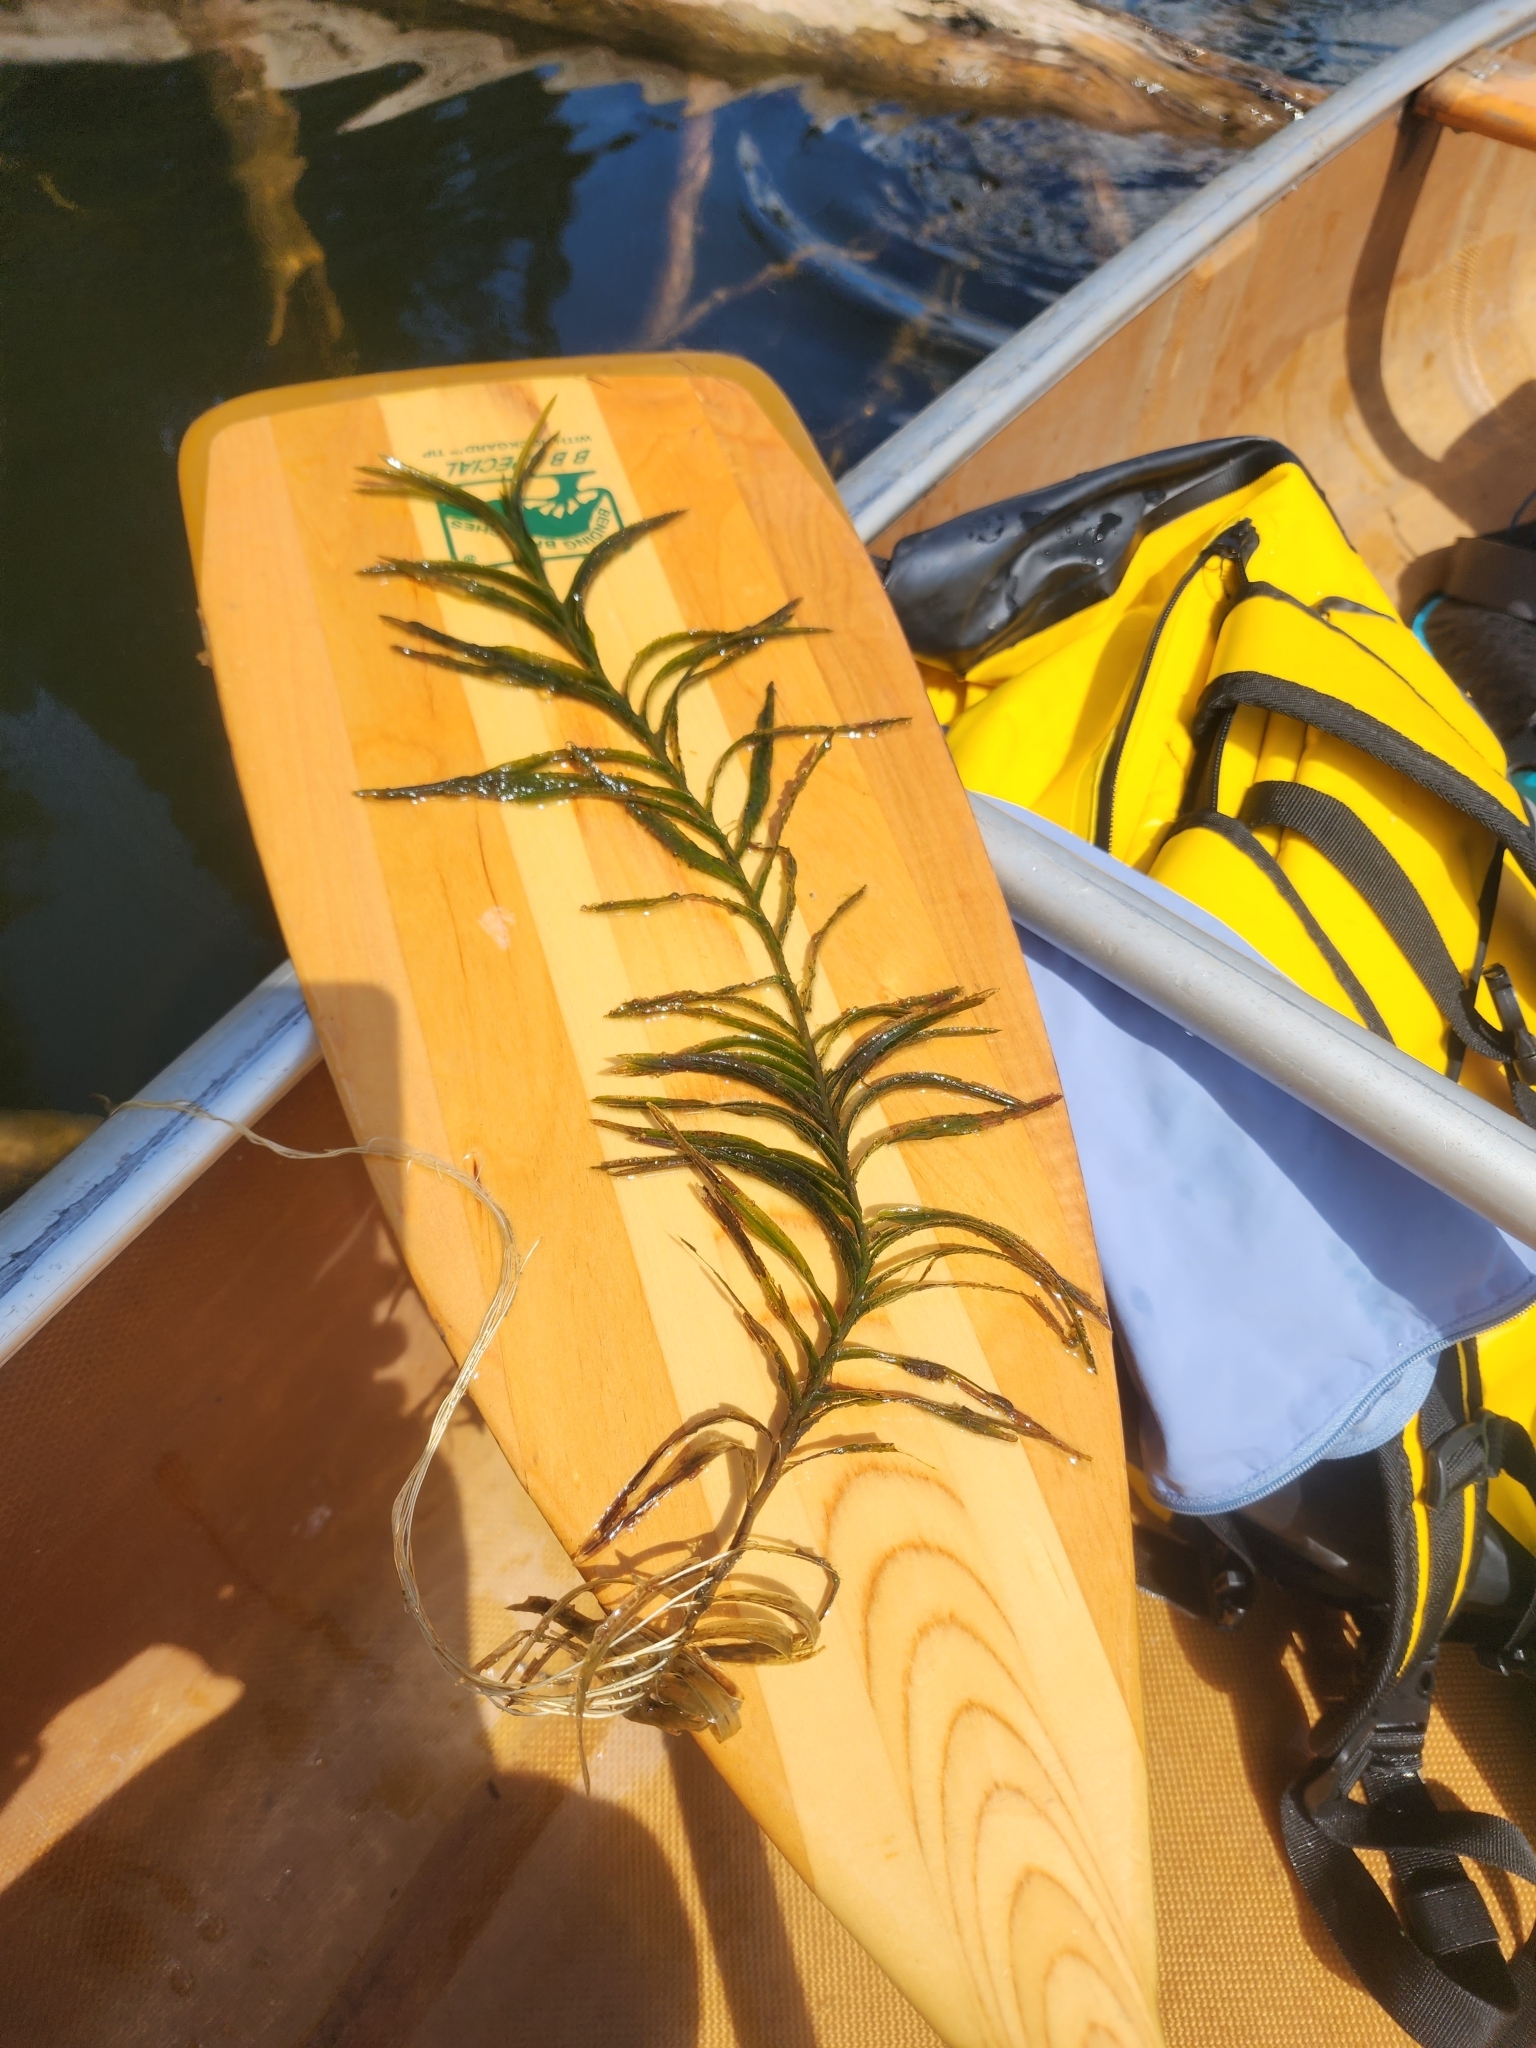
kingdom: Plantae
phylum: Tracheophyta
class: Liliopsida
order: Alismatales
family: Potamogetonaceae
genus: Potamogeton
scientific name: Potamogeton robbinsii
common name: Fern pondweed
